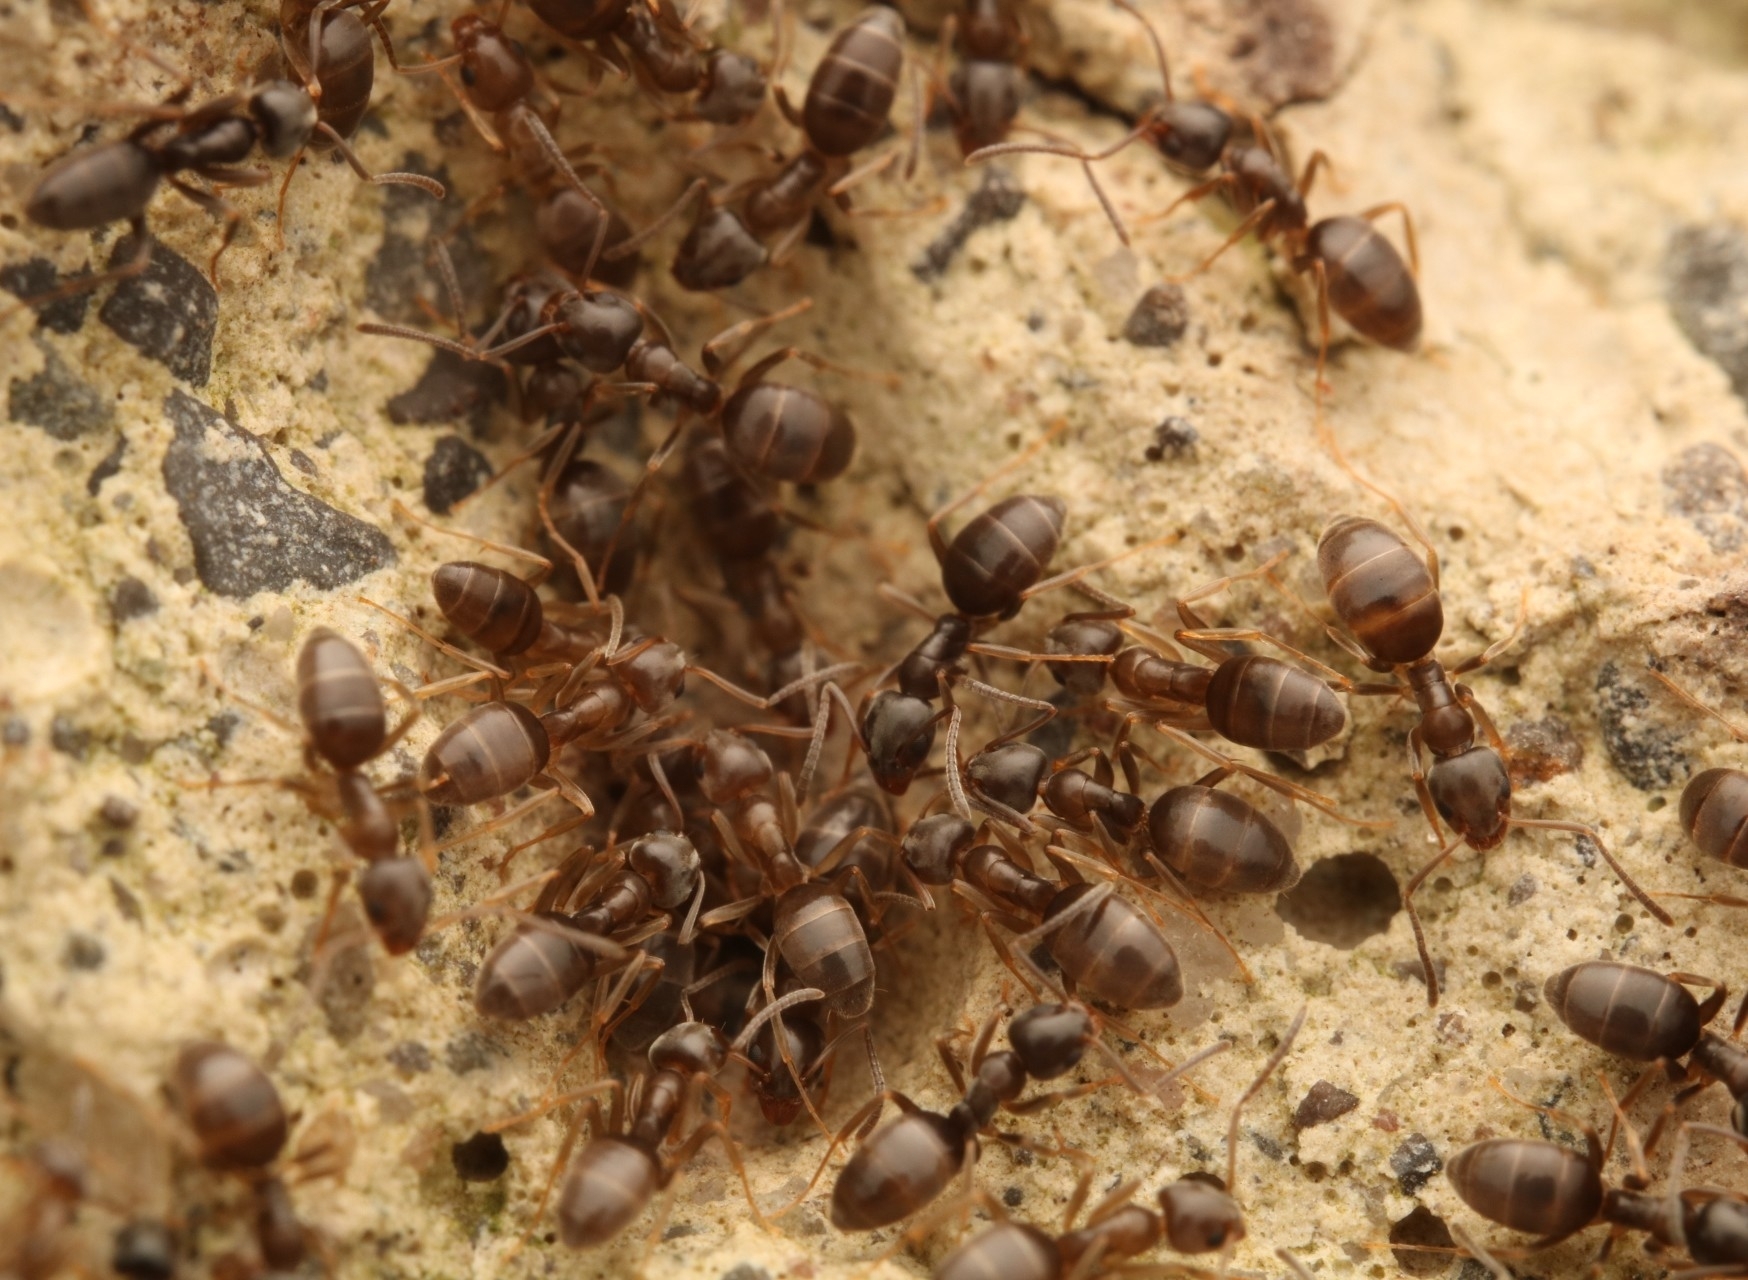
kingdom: Animalia
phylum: Arthropoda
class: Insecta
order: Hymenoptera
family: Formicidae
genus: Tapinoma
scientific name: Tapinoma sessile
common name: Odorous house ant
